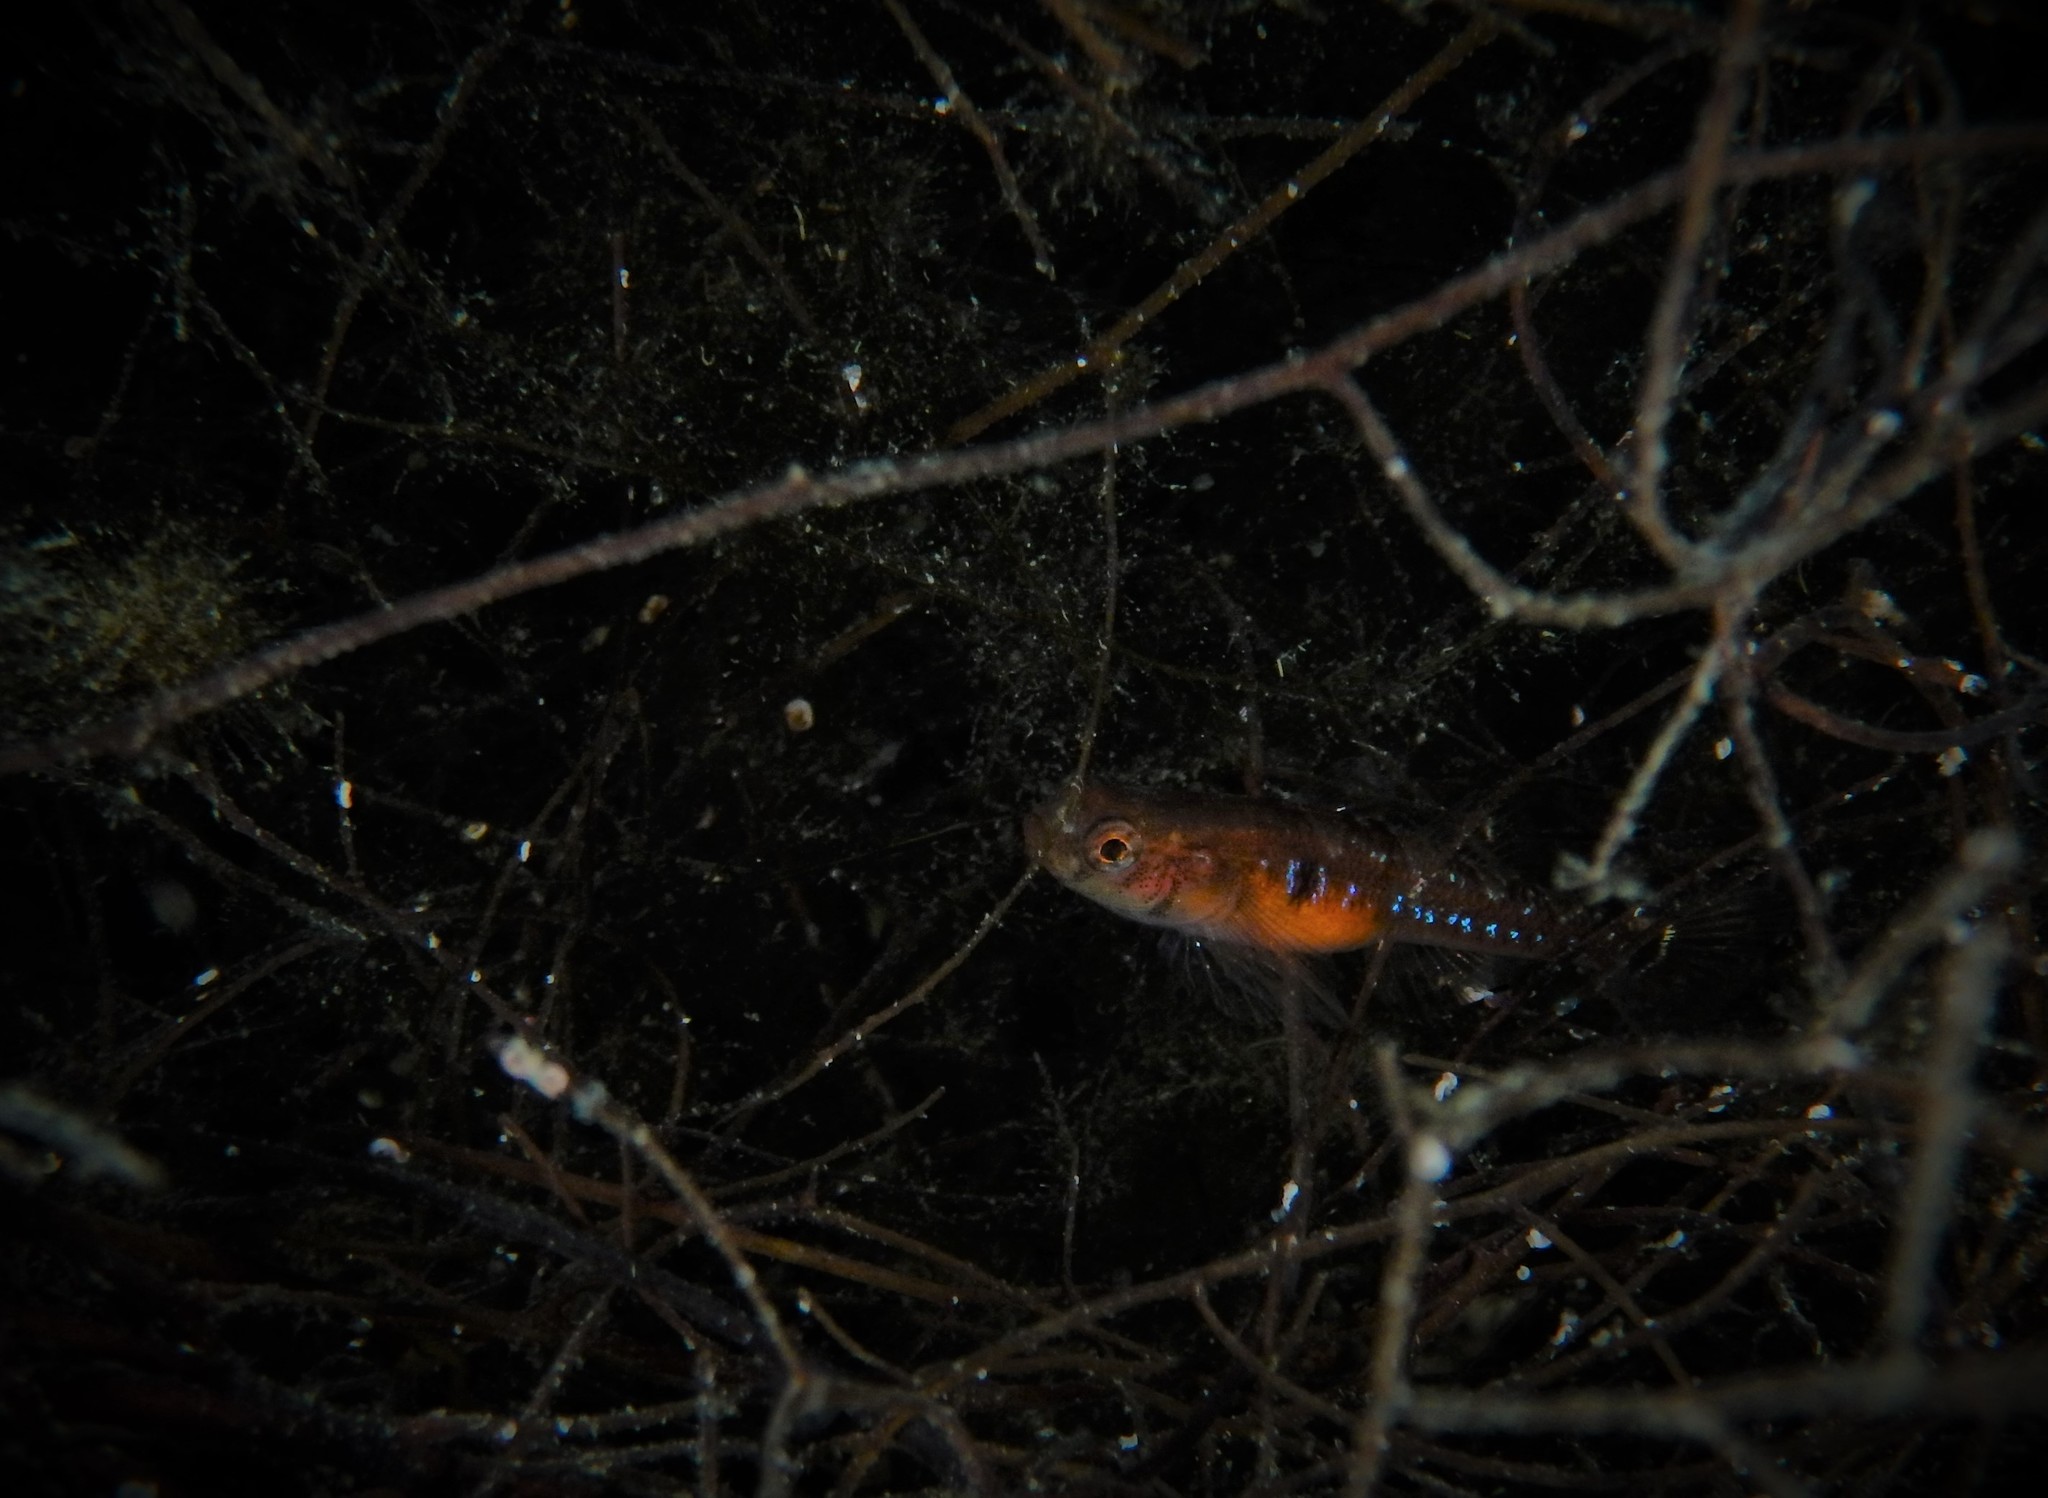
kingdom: Animalia
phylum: Chordata
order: Perciformes
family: Gobiidae
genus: Gobiusculus
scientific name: Gobiusculus flavescens
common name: Two-spotted goby
